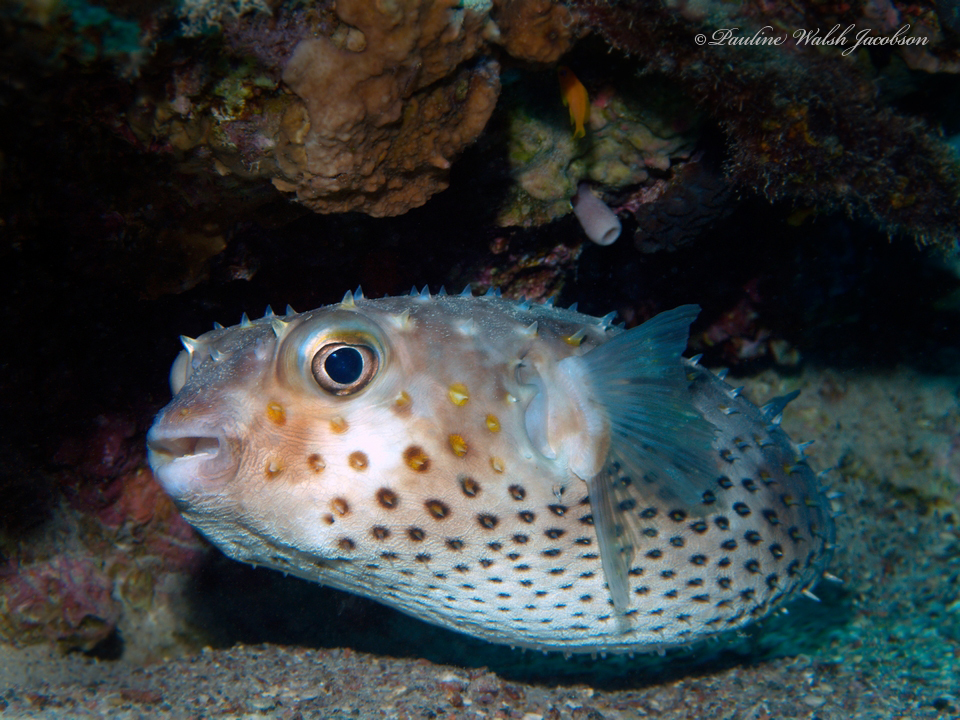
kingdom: Animalia
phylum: Chordata
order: Tetraodontiformes
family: Diodontidae
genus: Cyclichthys
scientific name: Cyclichthys spilostylus
